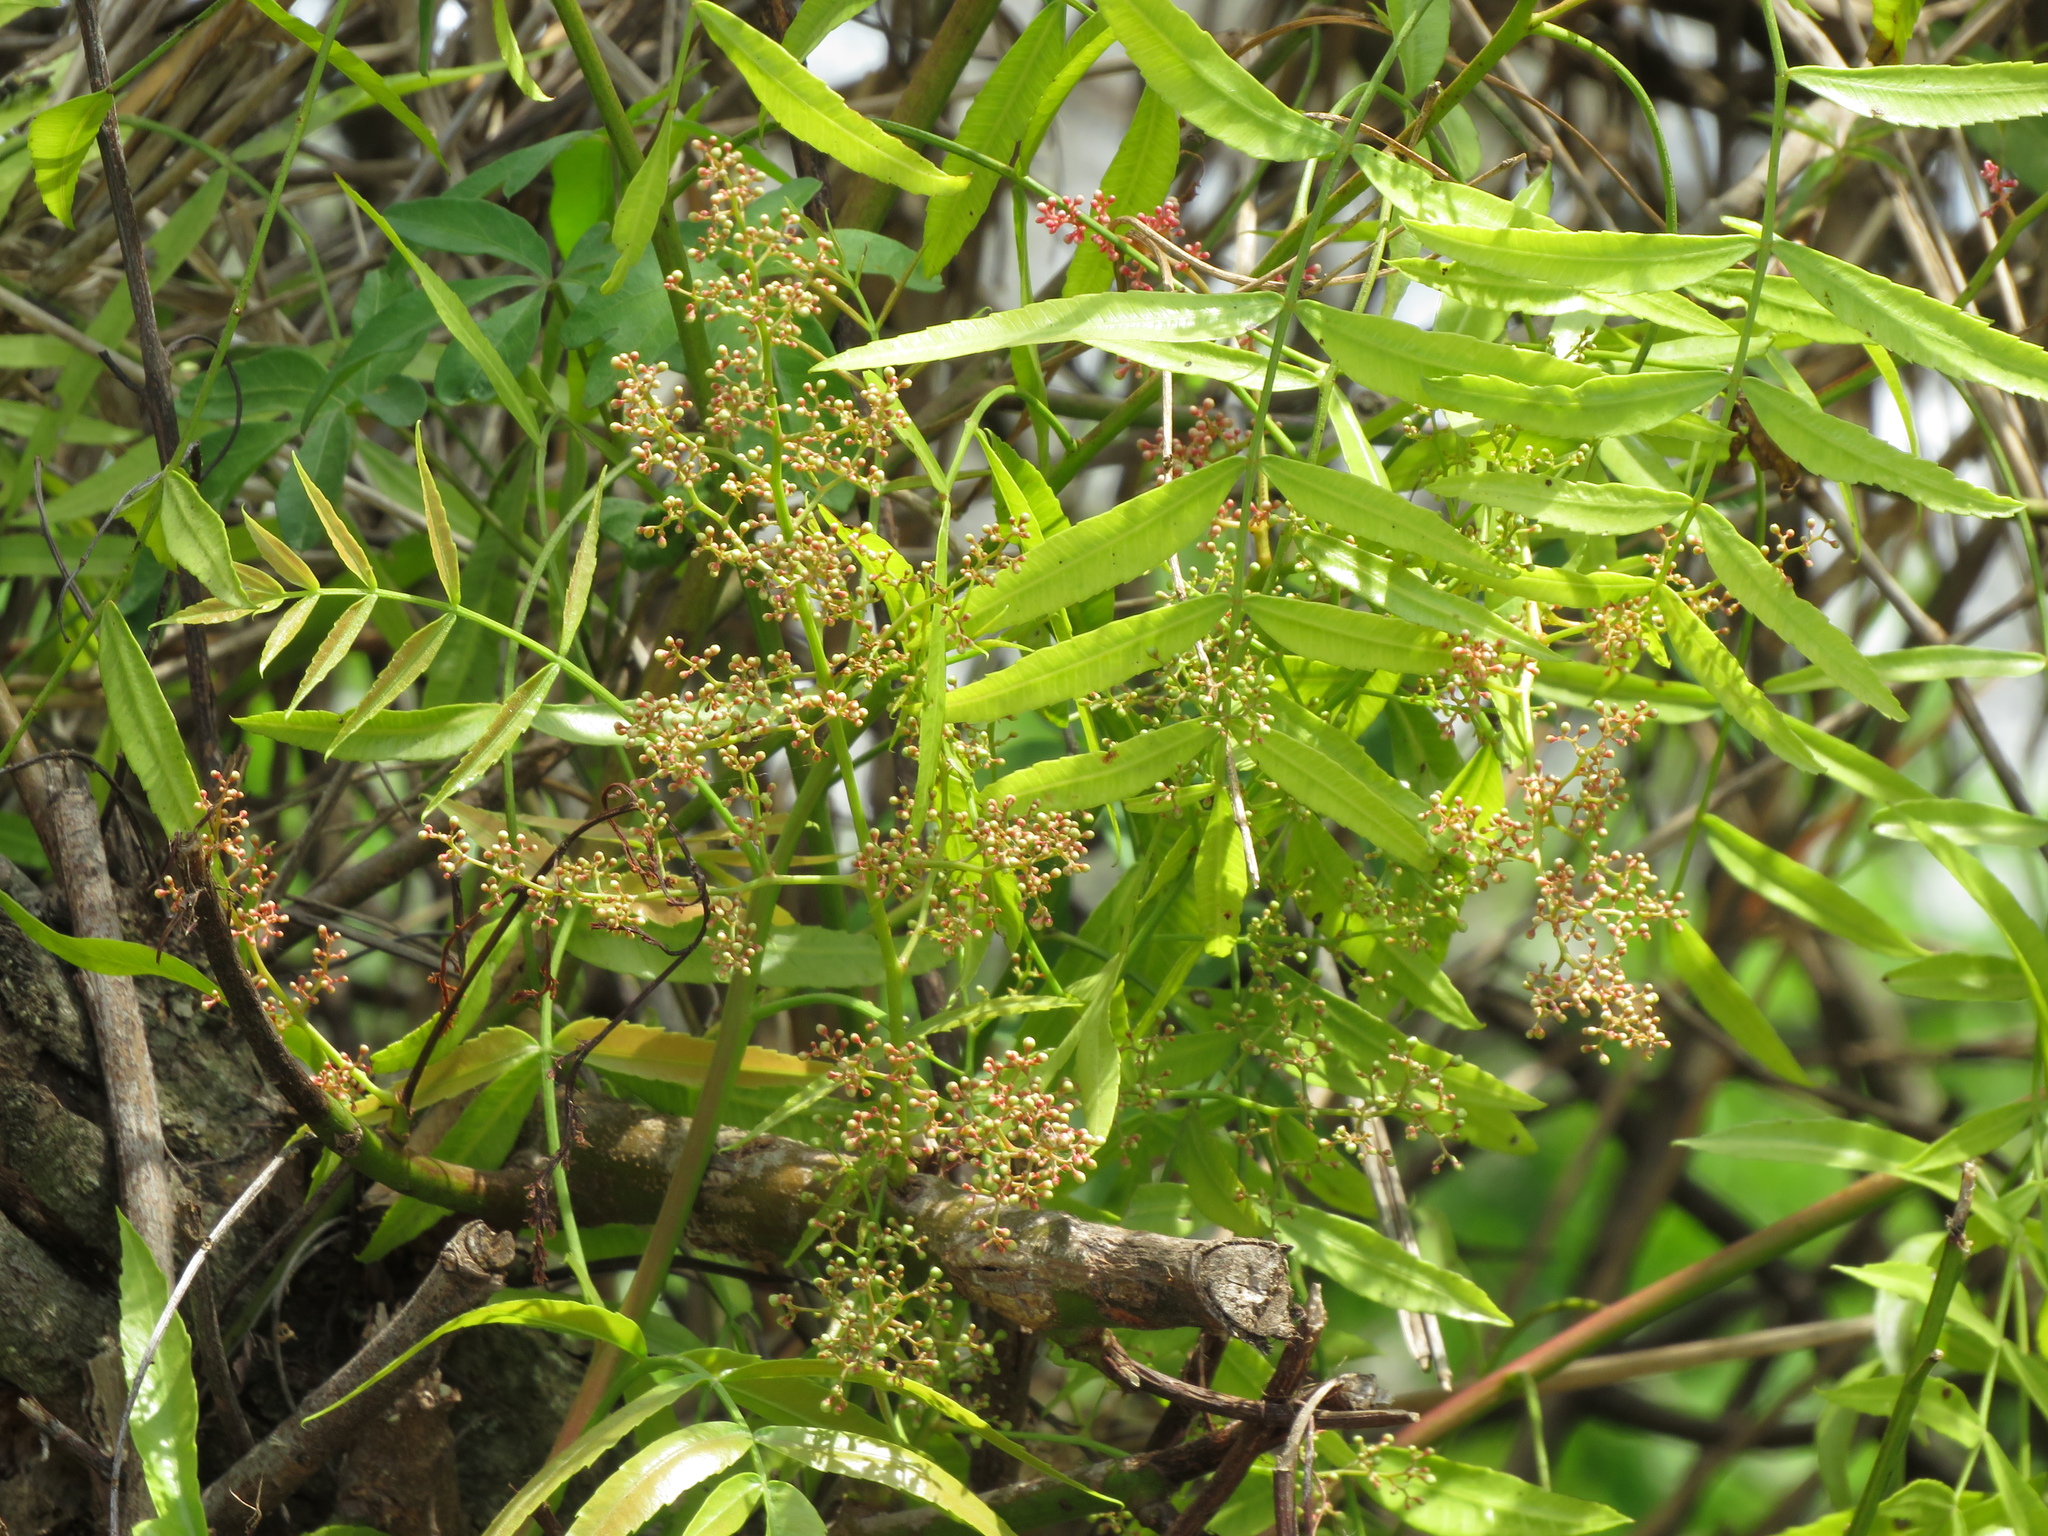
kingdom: Plantae
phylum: Tracheophyta
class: Magnoliopsida
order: Sapindales
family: Anacardiaceae
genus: Schinus
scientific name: Schinus molle
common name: Peruvian peppertree
